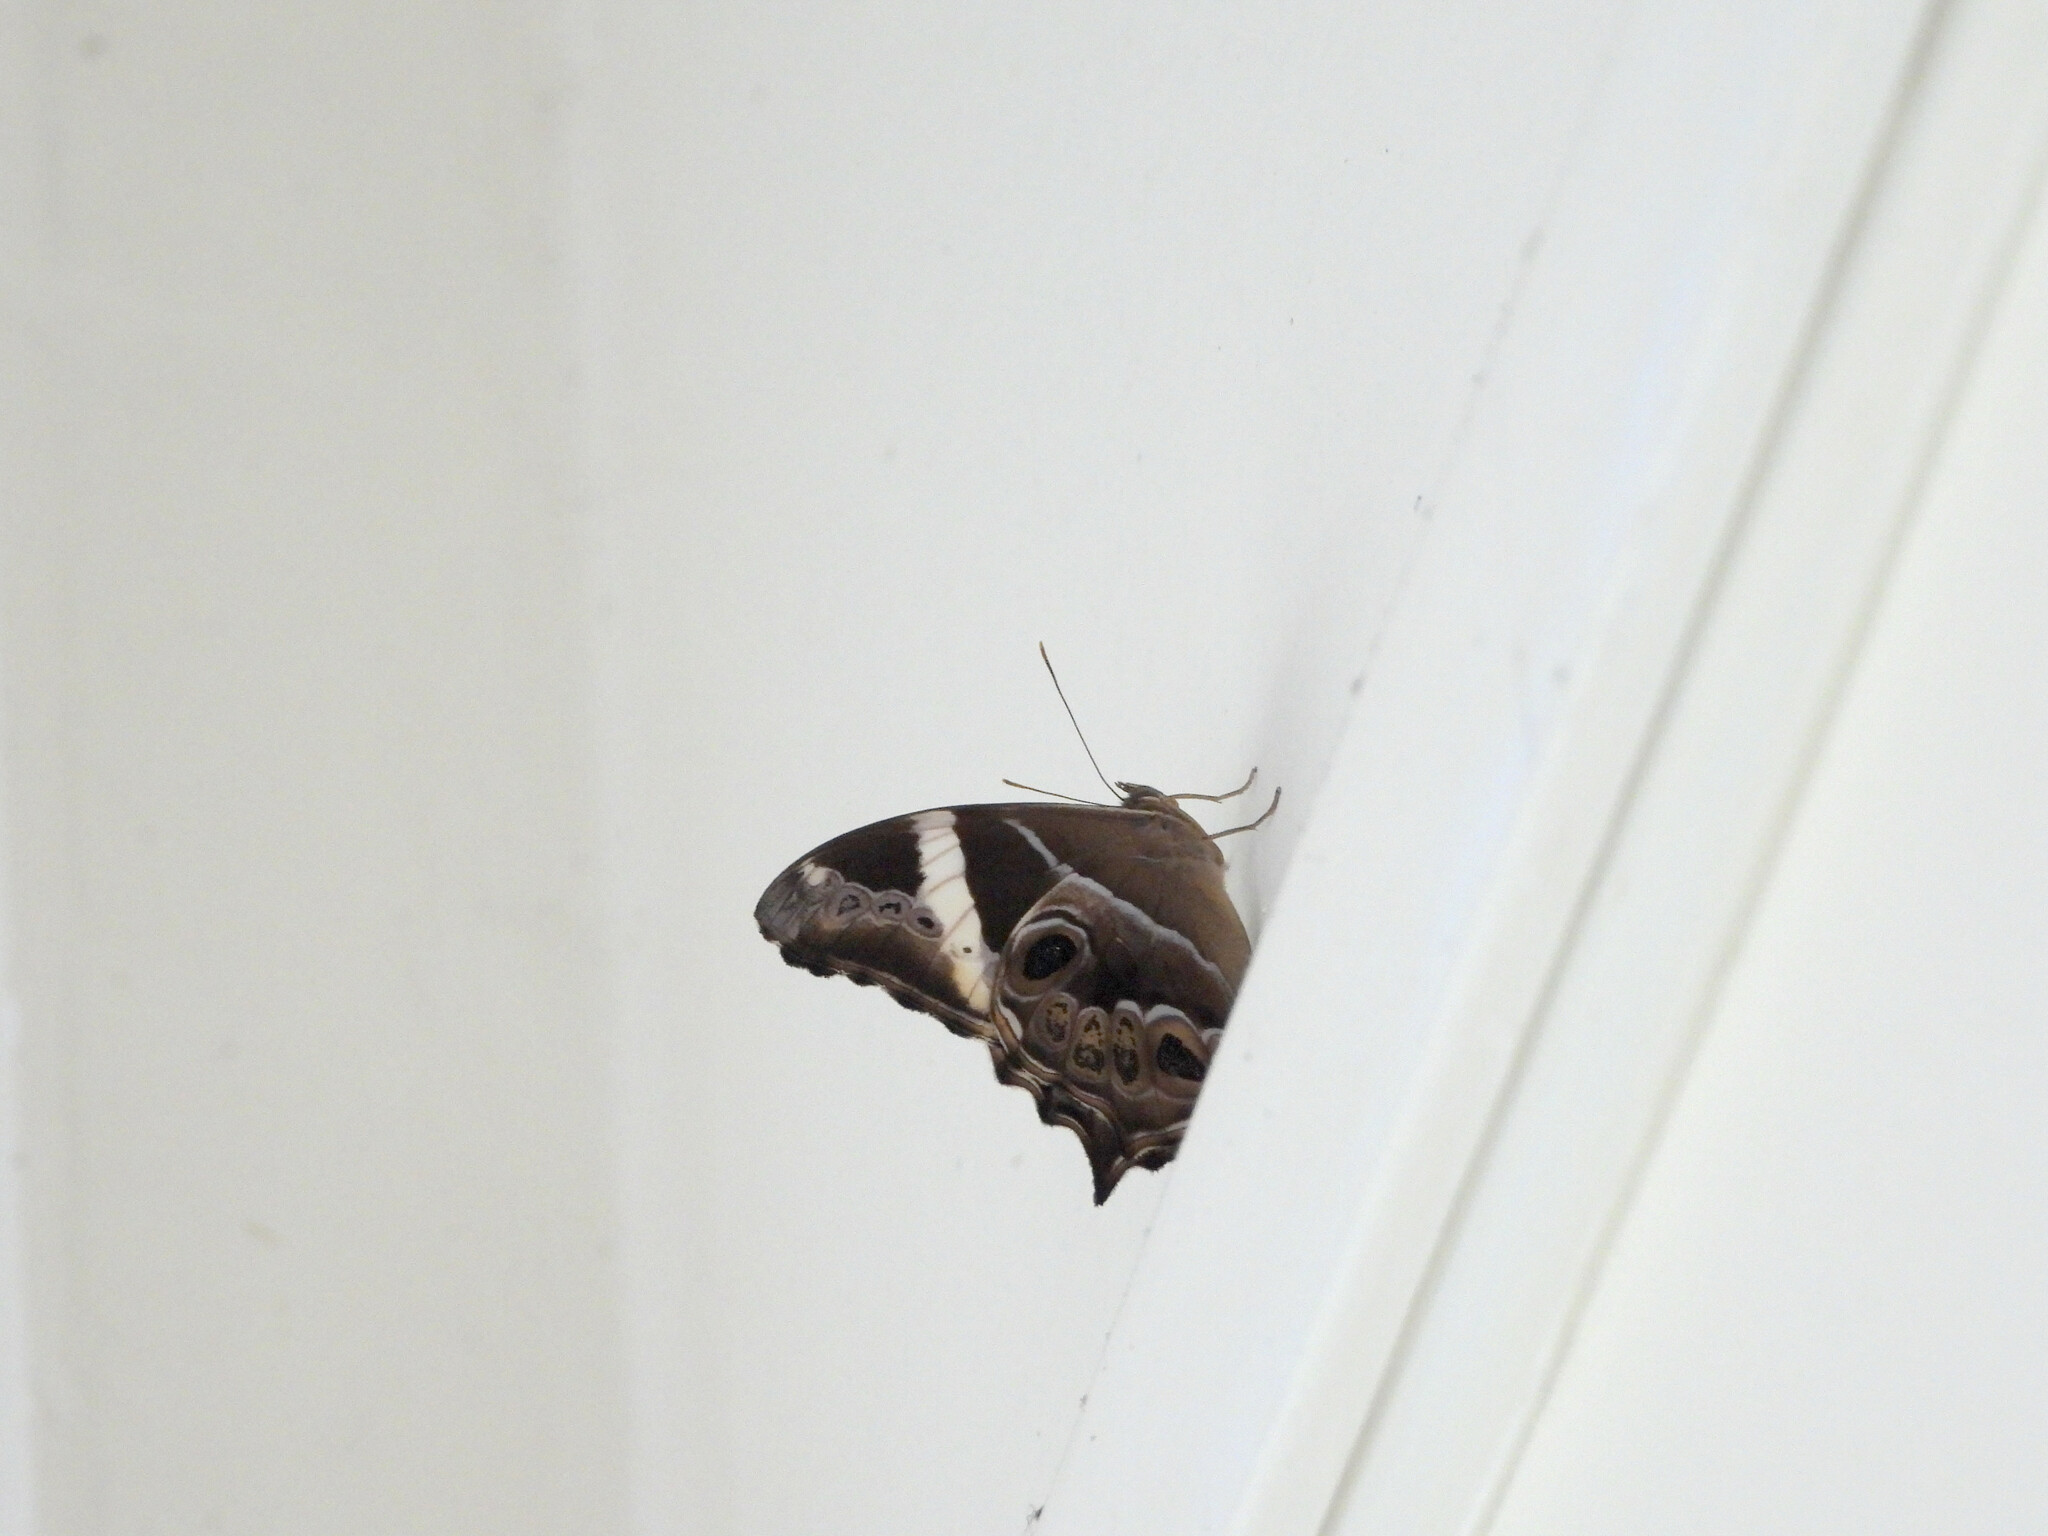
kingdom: Animalia
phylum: Arthropoda
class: Insecta
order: Lepidoptera
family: Nymphalidae
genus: Lethe
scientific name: Lethe europa
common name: Bamboo treebrown
